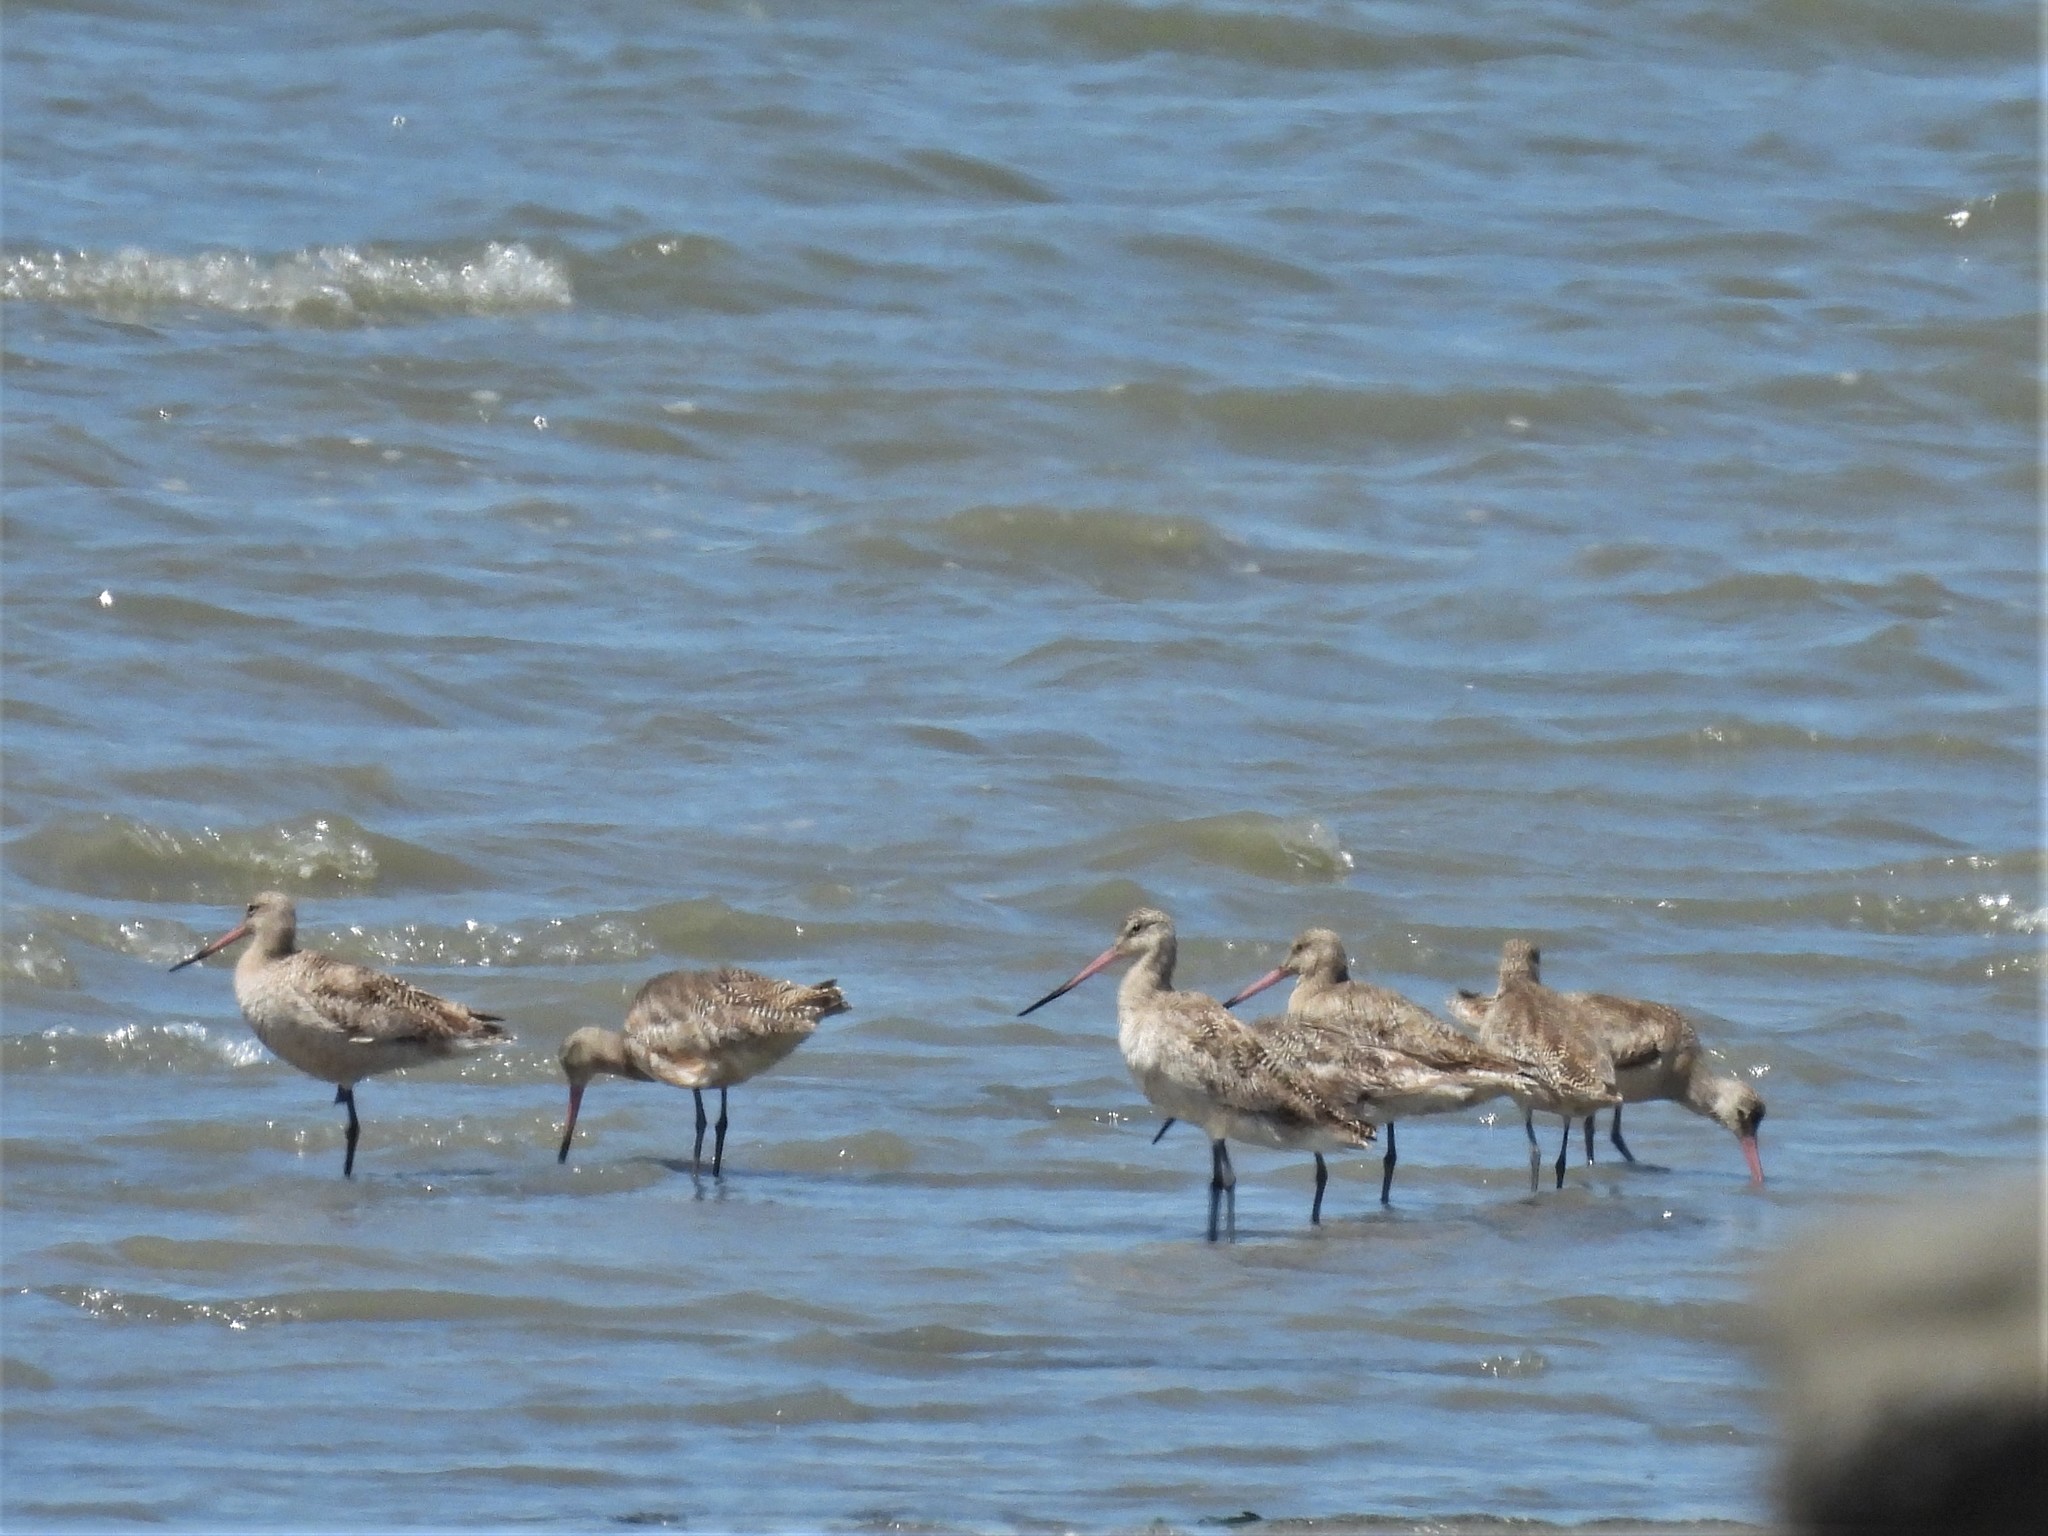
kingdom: Animalia
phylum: Chordata
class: Aves
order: Charadriiformes
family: Scolopacidae
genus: Limosa
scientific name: Limosa fedoa
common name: Marbled godwit
